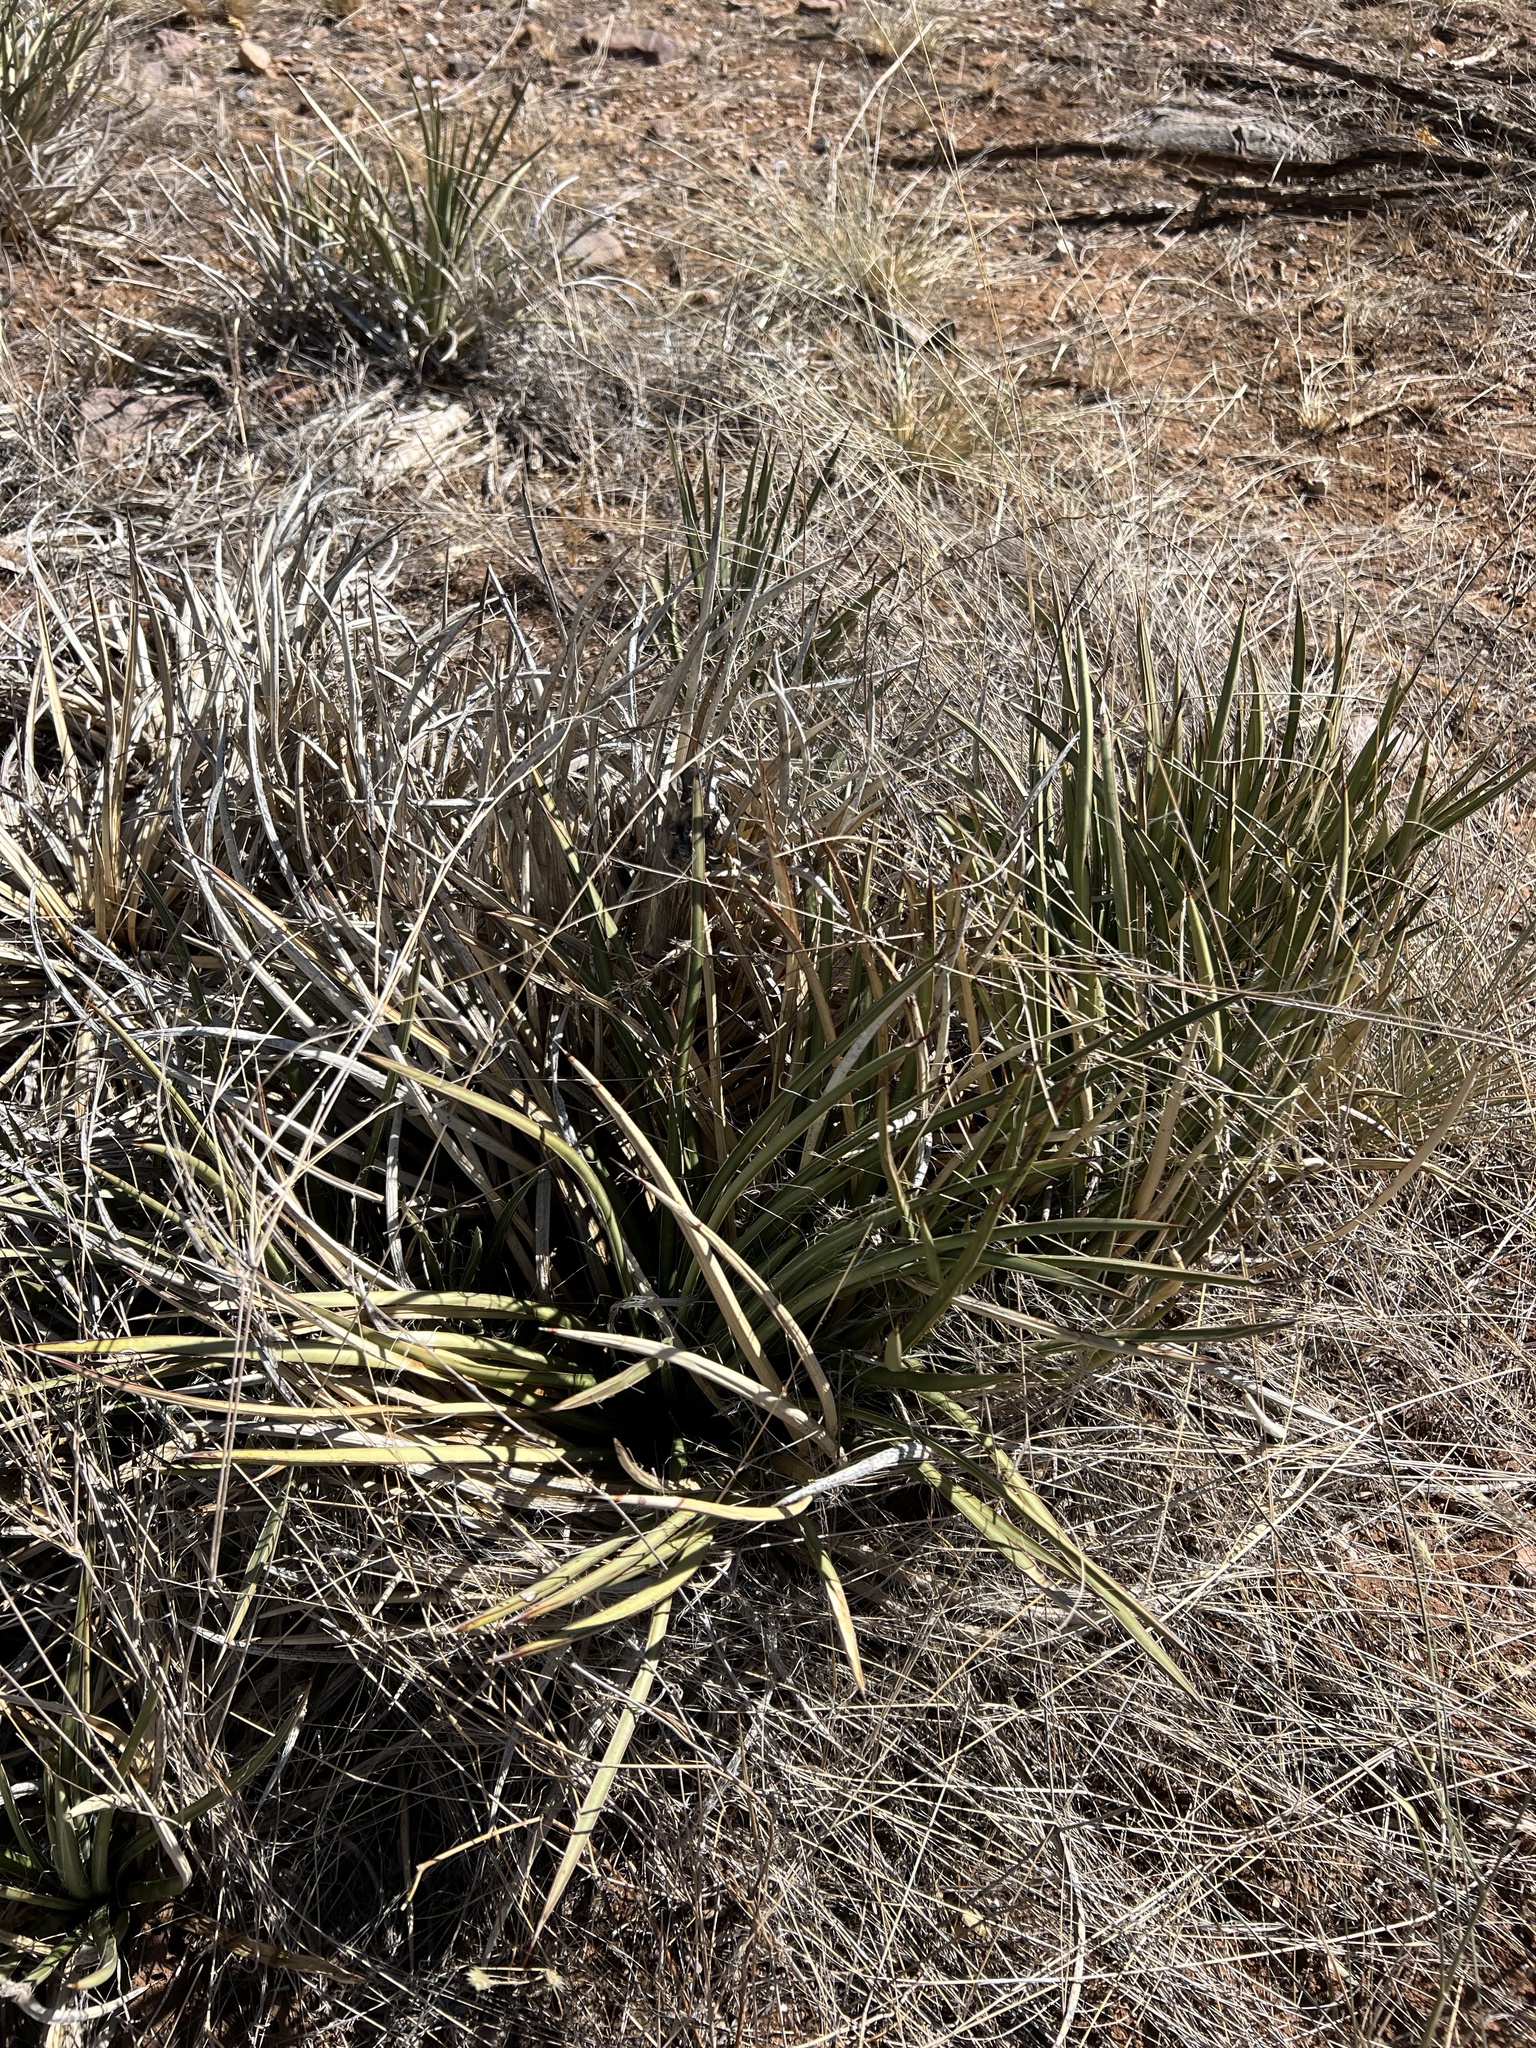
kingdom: Plantae
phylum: Tracheophyta
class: Liliopsida
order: Asparagales
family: Asparagaceae
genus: Agave
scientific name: Agave schottii
